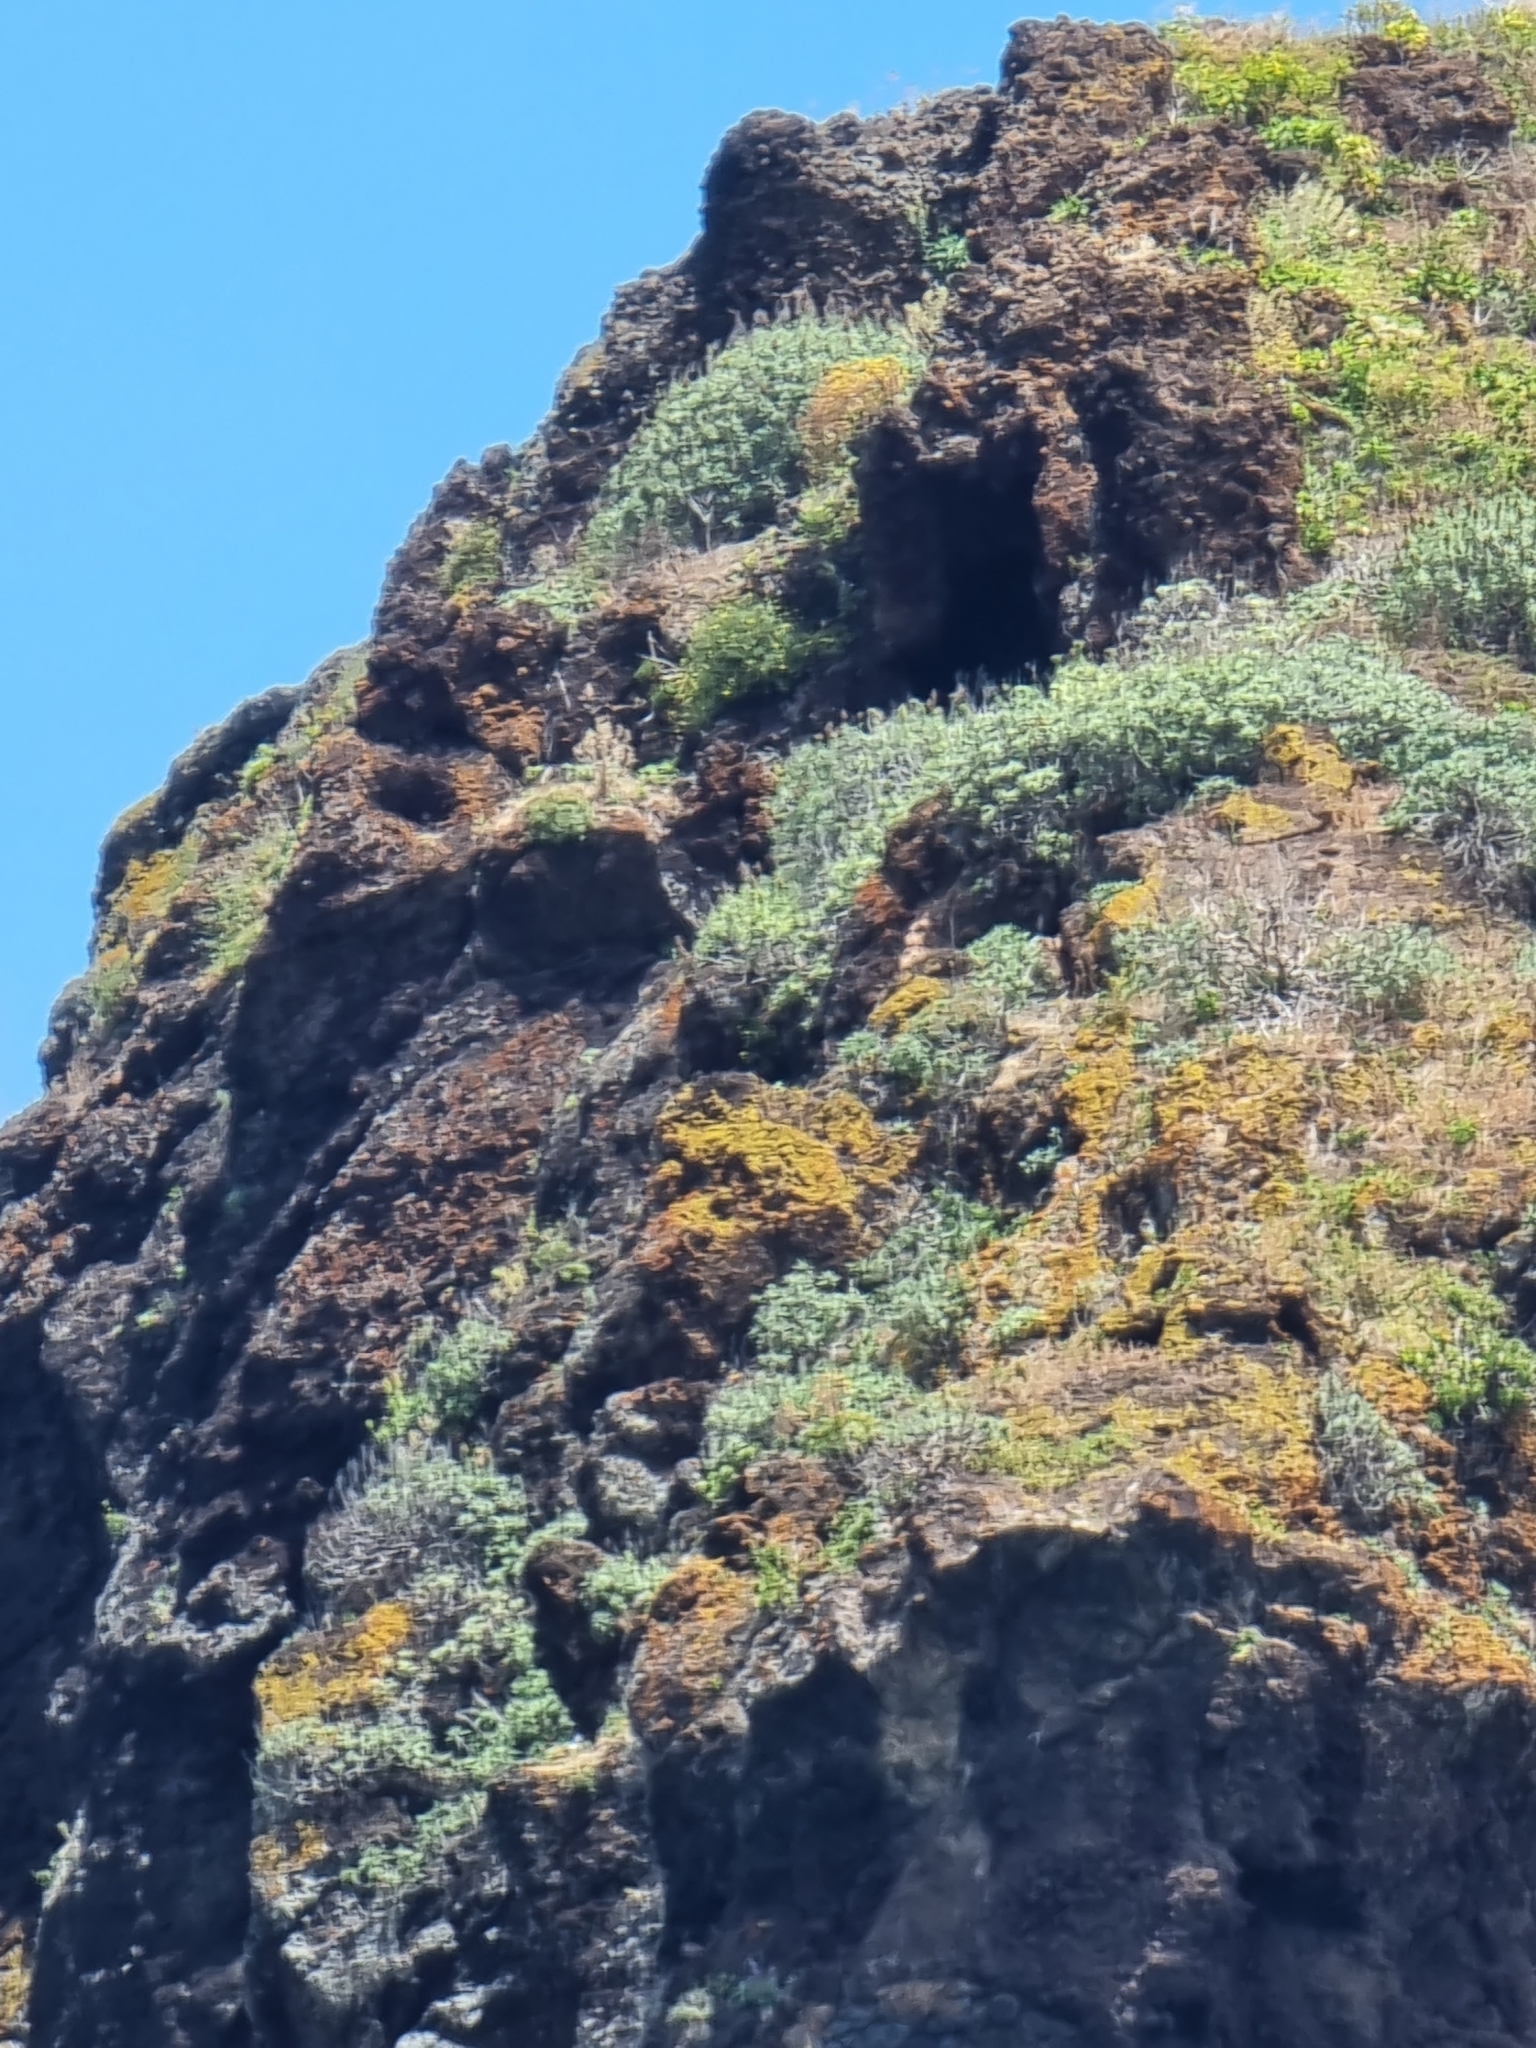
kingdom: Plantae
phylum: Tracheophyta
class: Magnoliopsida
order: Boraginales
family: Boraginaceae
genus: Echium
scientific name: Echium nervosum
